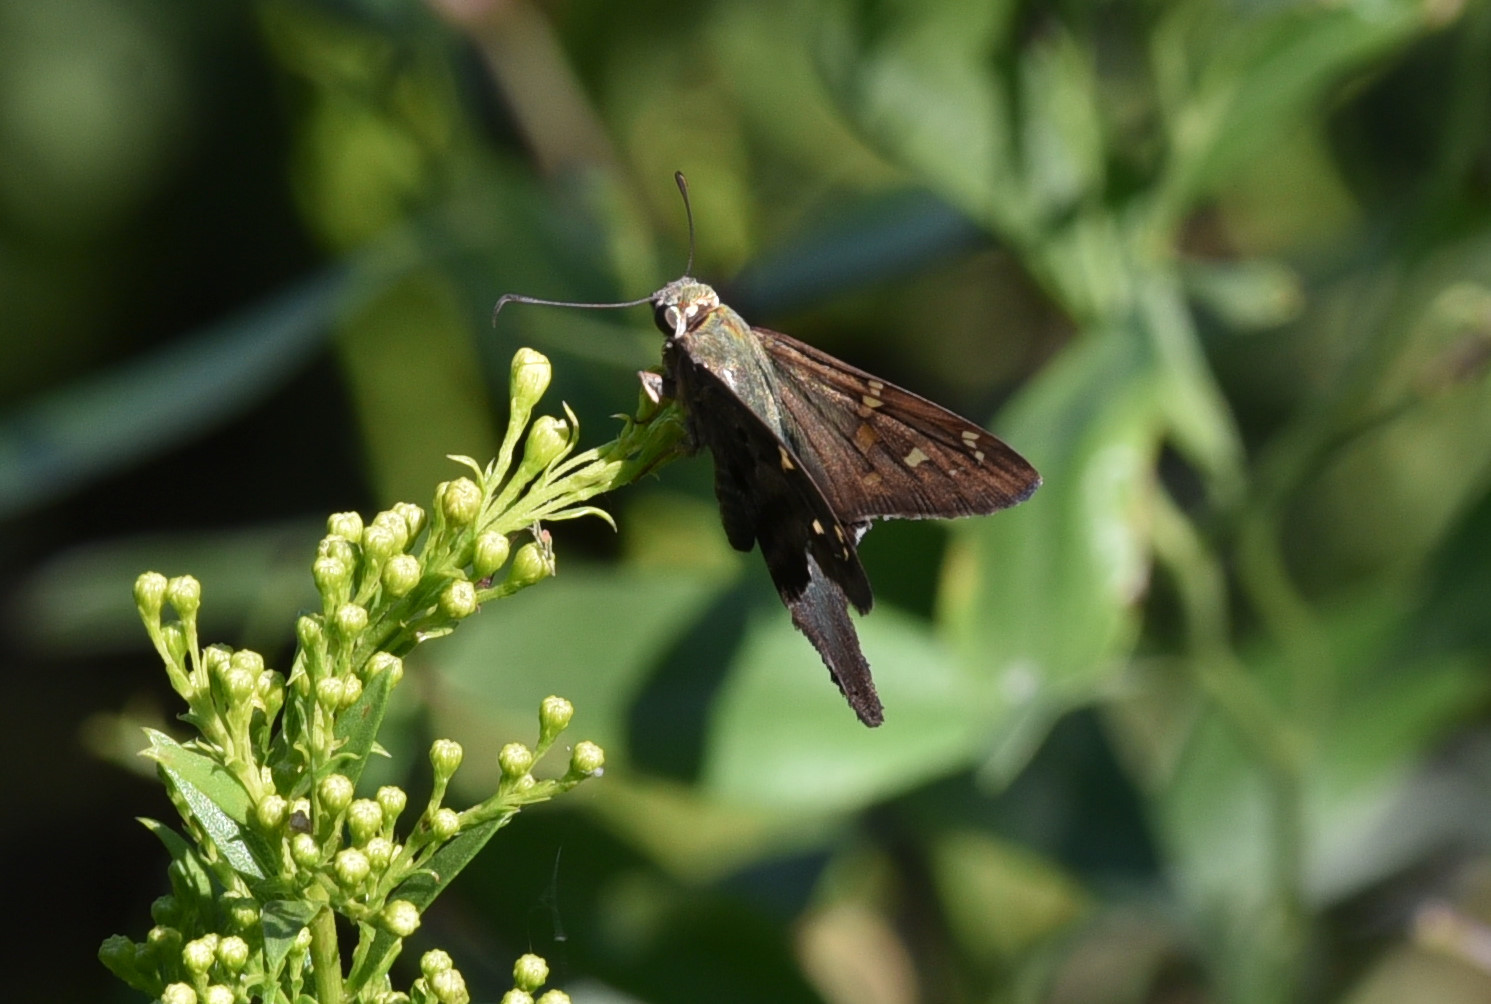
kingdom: Animalia
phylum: Arthropoda
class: Insecta
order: Lepidoptera
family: Hesperiidae
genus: Urbanus
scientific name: Urbanus proteus
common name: Long-tailed skipper
